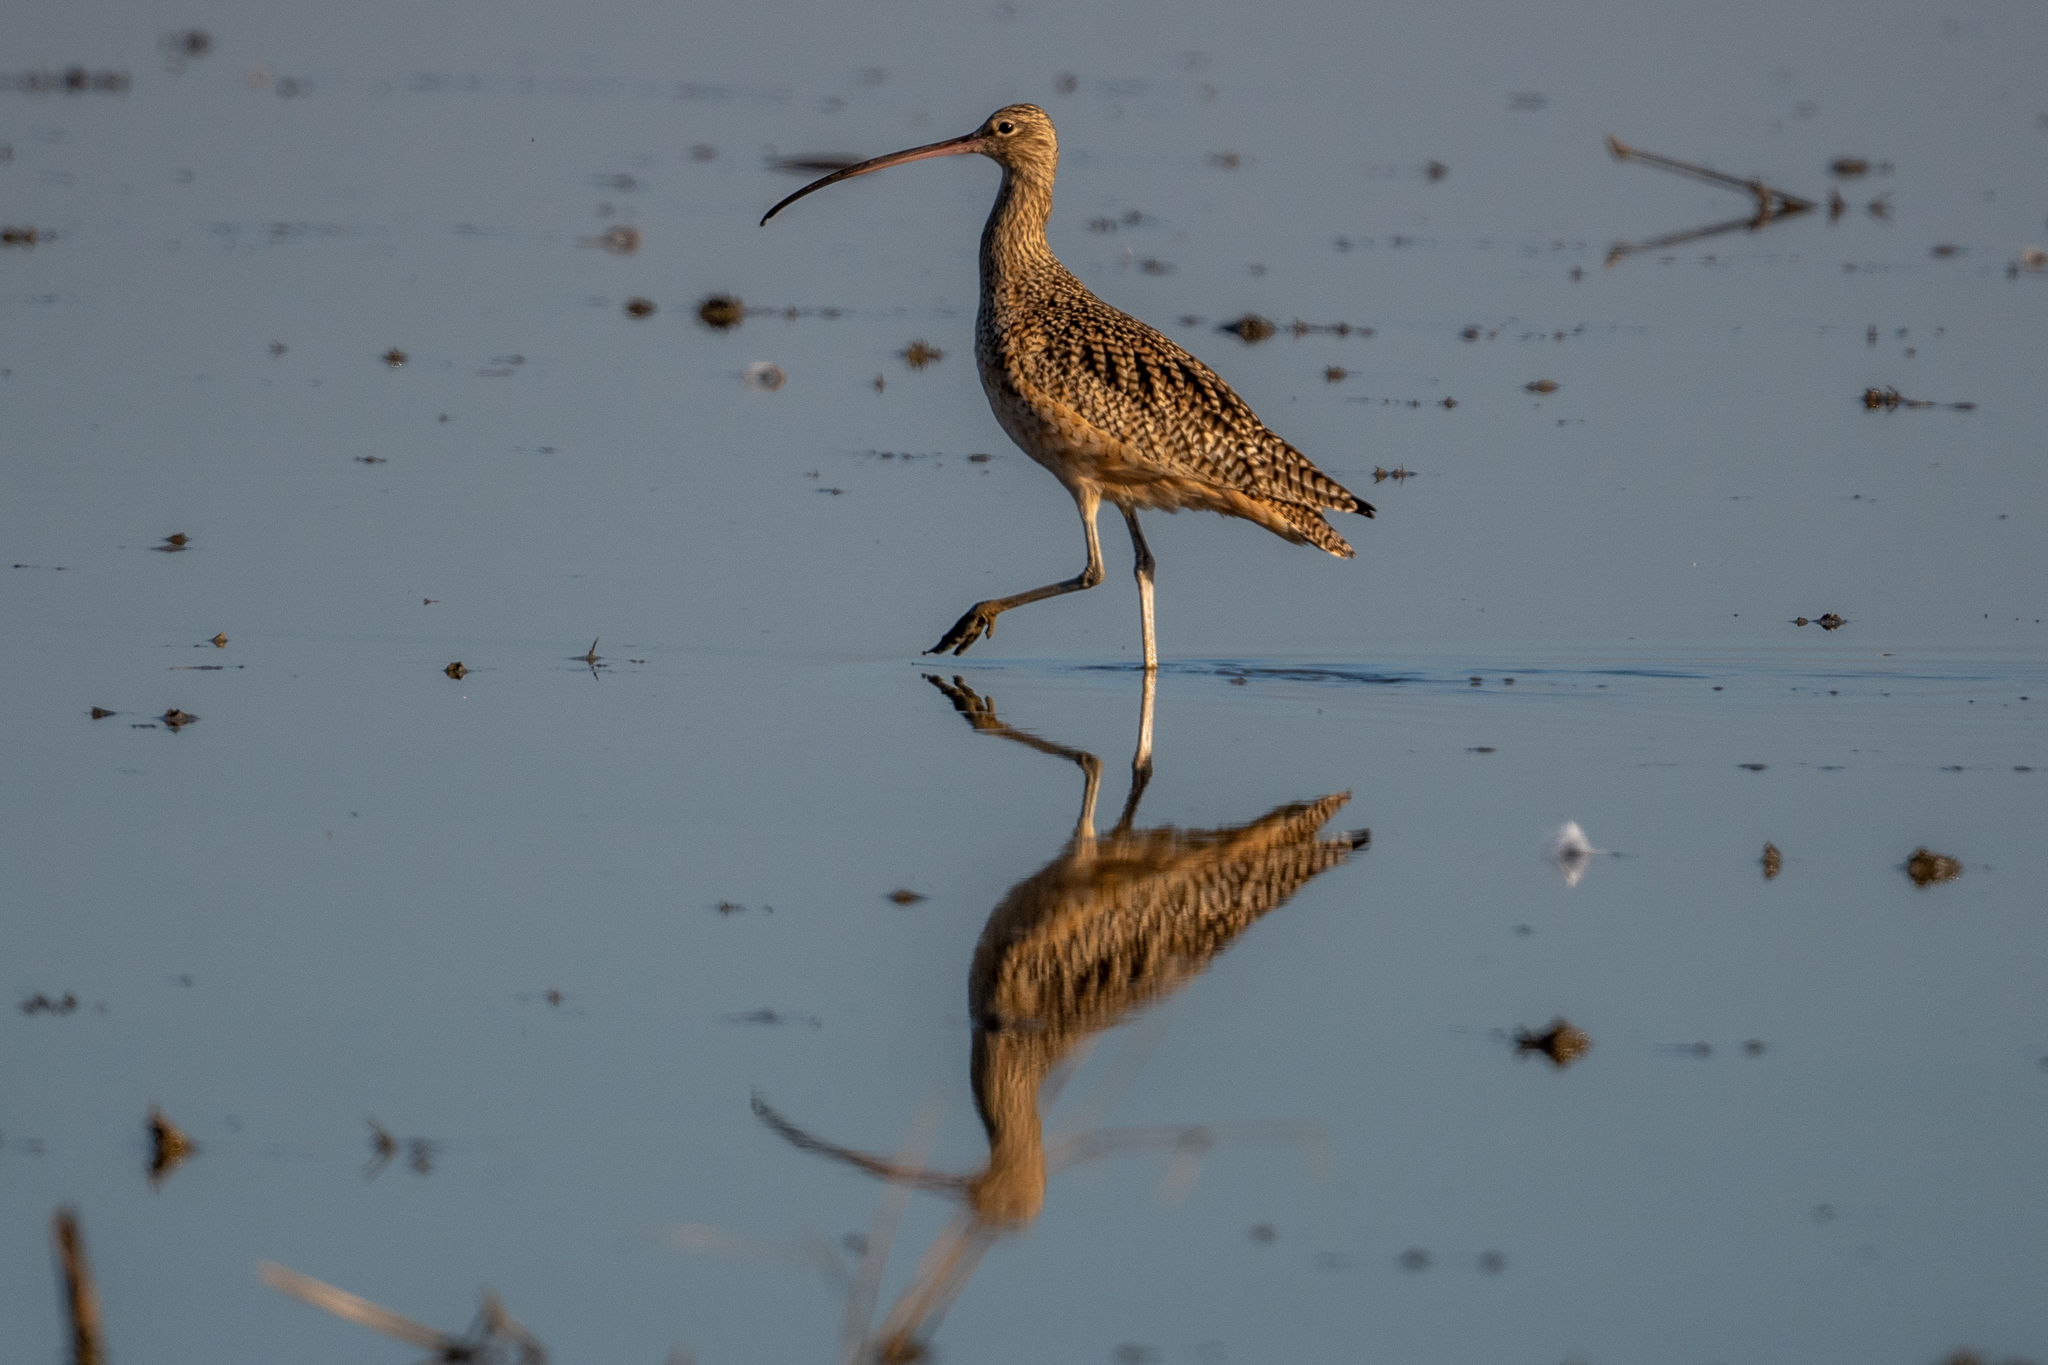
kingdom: Animalia
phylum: Chordata
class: Aves
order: Charadriiformes
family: Scolopacidae
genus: Numenius
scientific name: Numenius americanus
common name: Long-billed curlew
